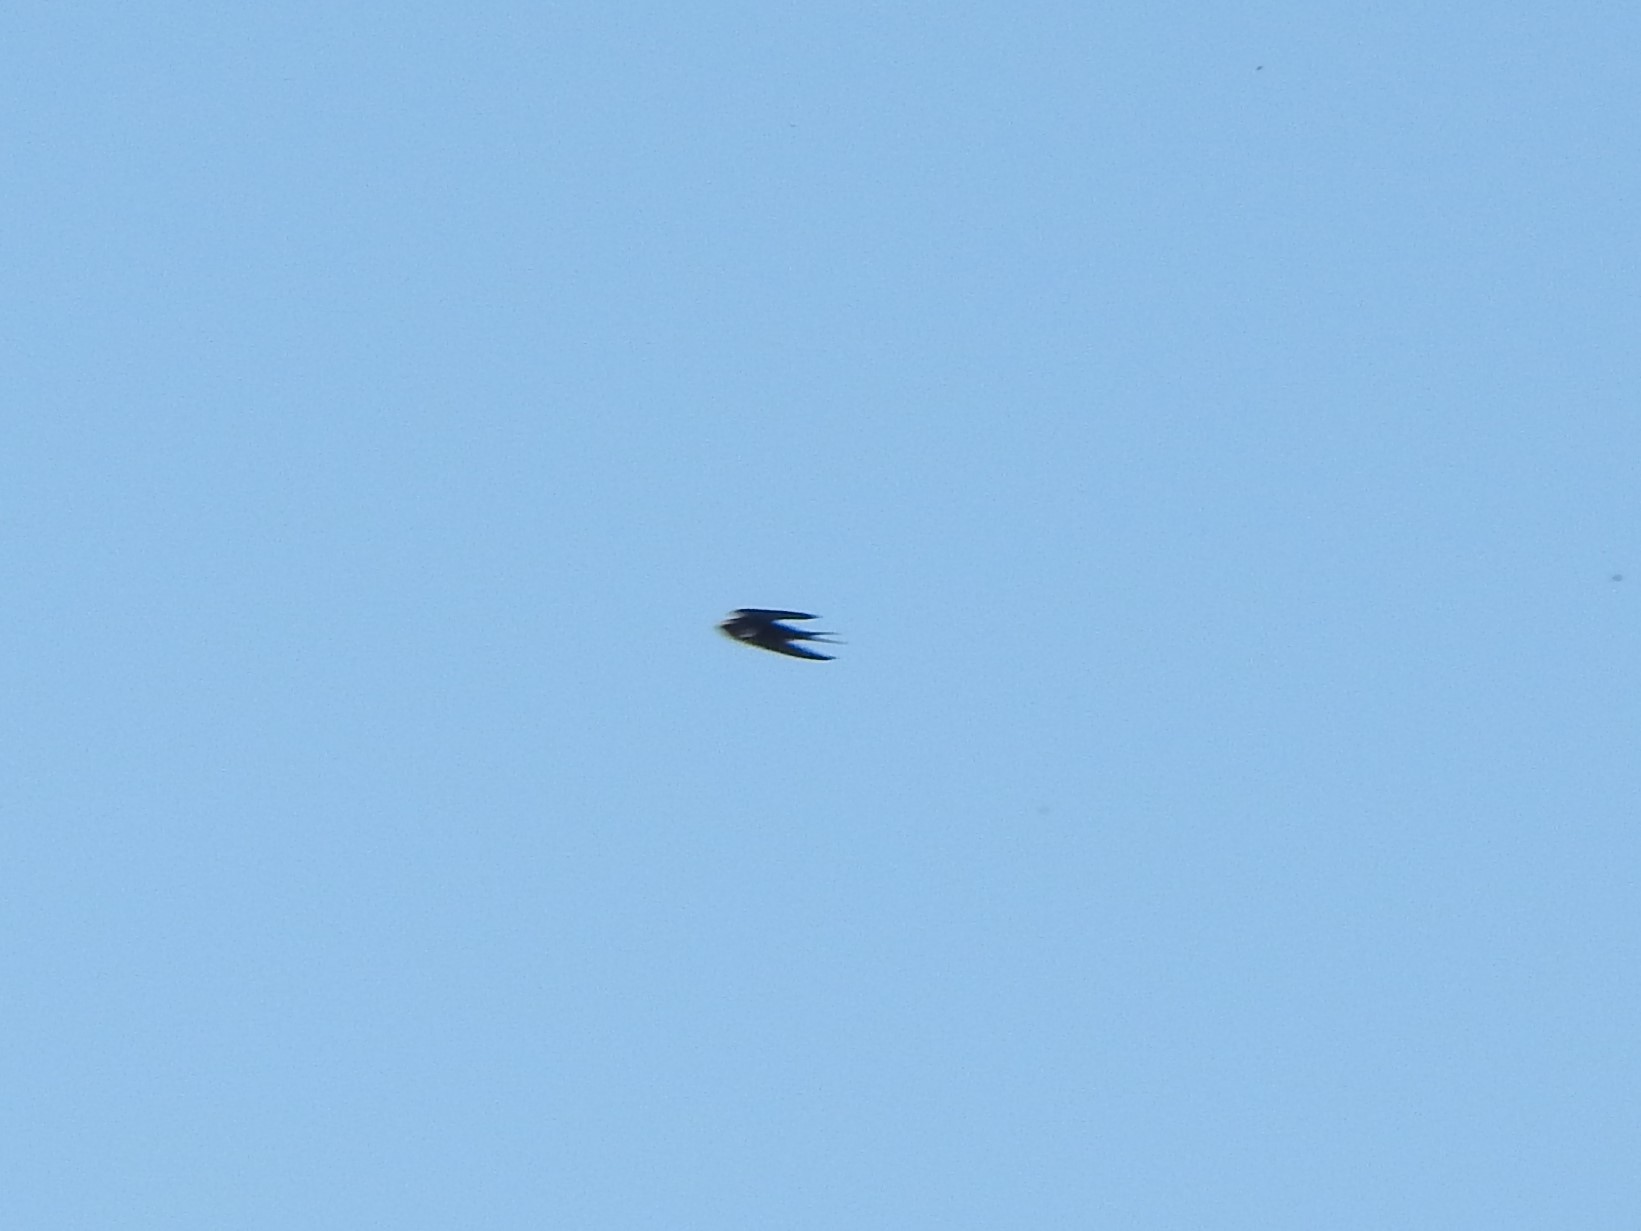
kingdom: Animalia
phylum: Chordata
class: Aves
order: Passeriformes
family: Hirundinidae
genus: Hirundo
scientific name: Hirundo rustica
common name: Barn swallow
